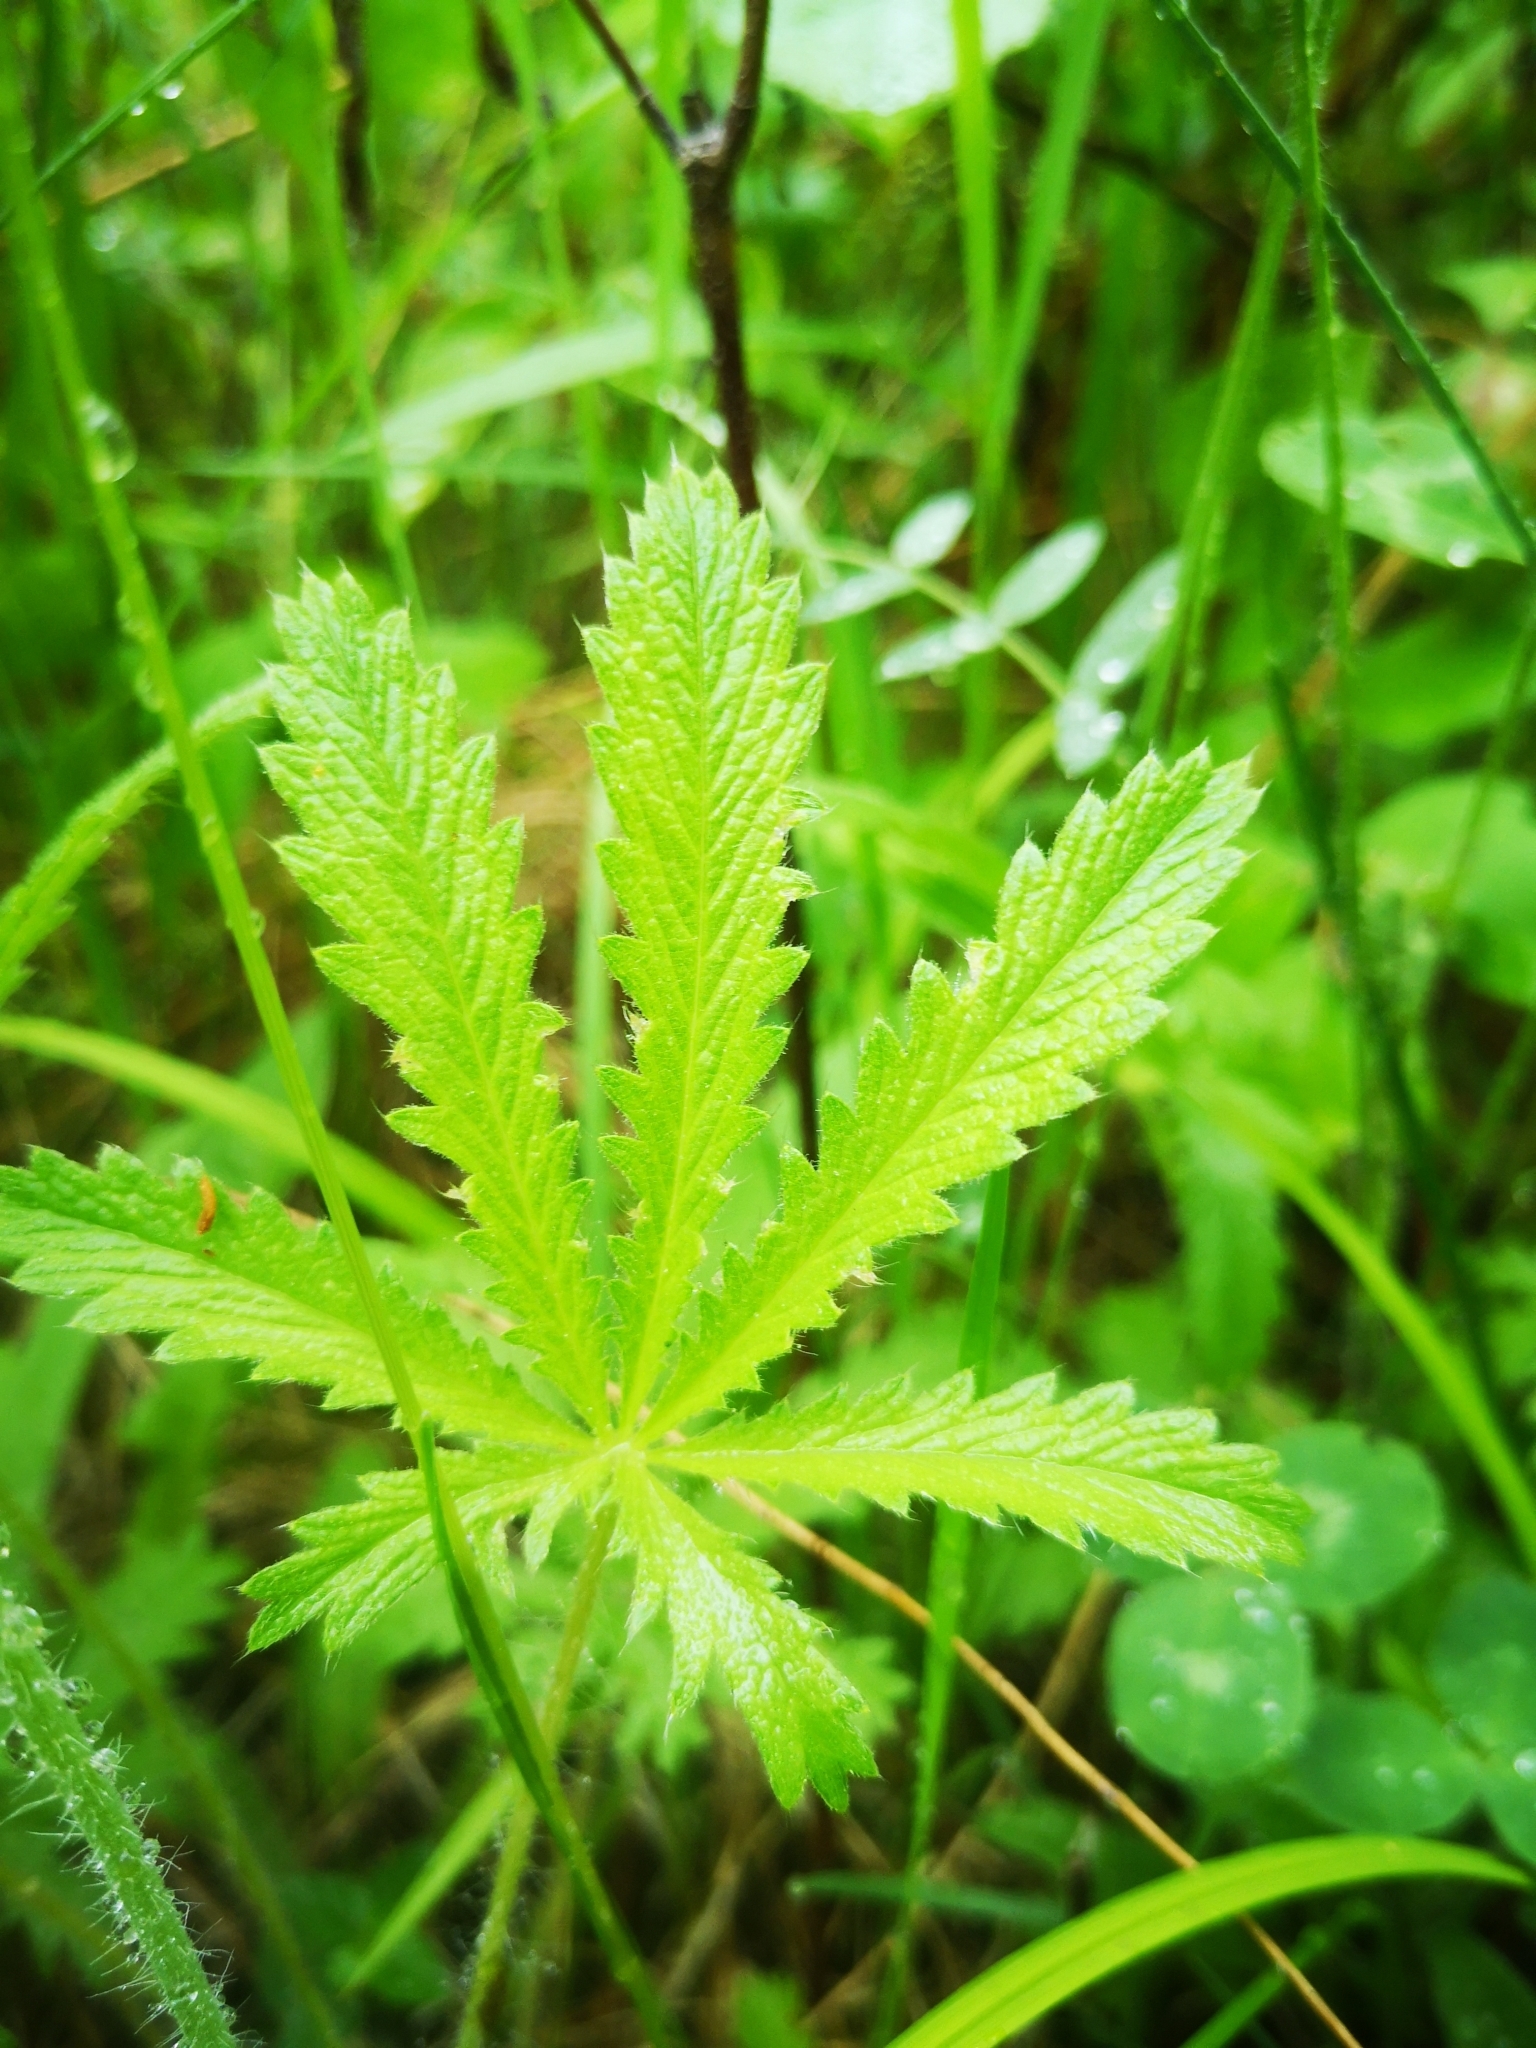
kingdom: Plantae
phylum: Tracheophyta
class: Magnoliopsida
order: Rosales
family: Rosaceae
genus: Potentilla
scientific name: Potentilla recta
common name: Sulphur cinquefoil
